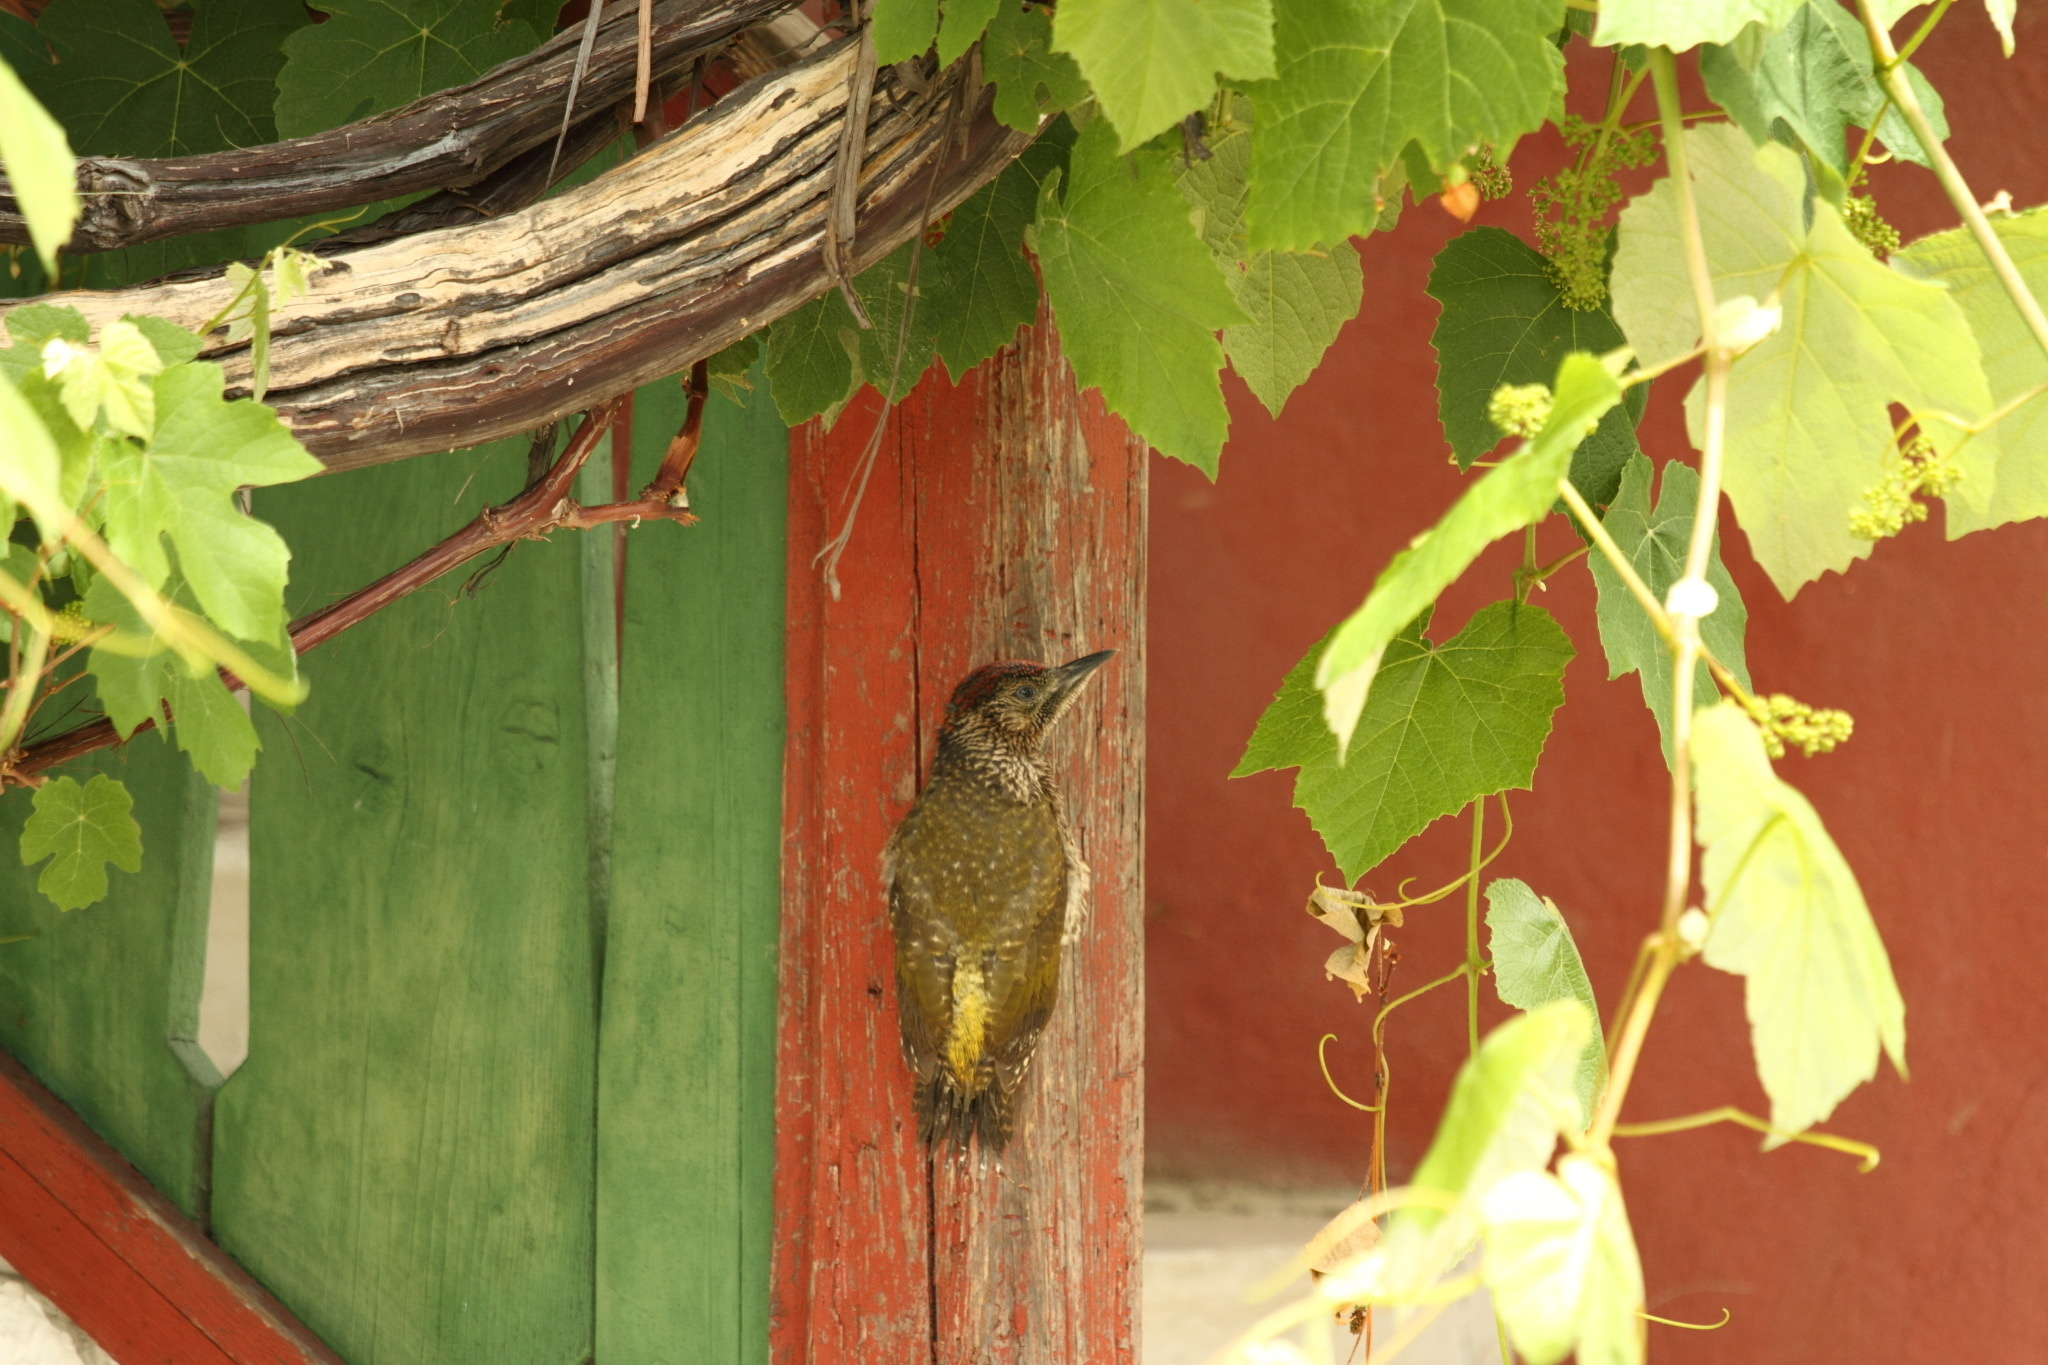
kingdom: Animalia
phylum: Chordata
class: Aves
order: Piciformes
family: Picidae
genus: Picus
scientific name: Picus viridis
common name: European green woodpecker
